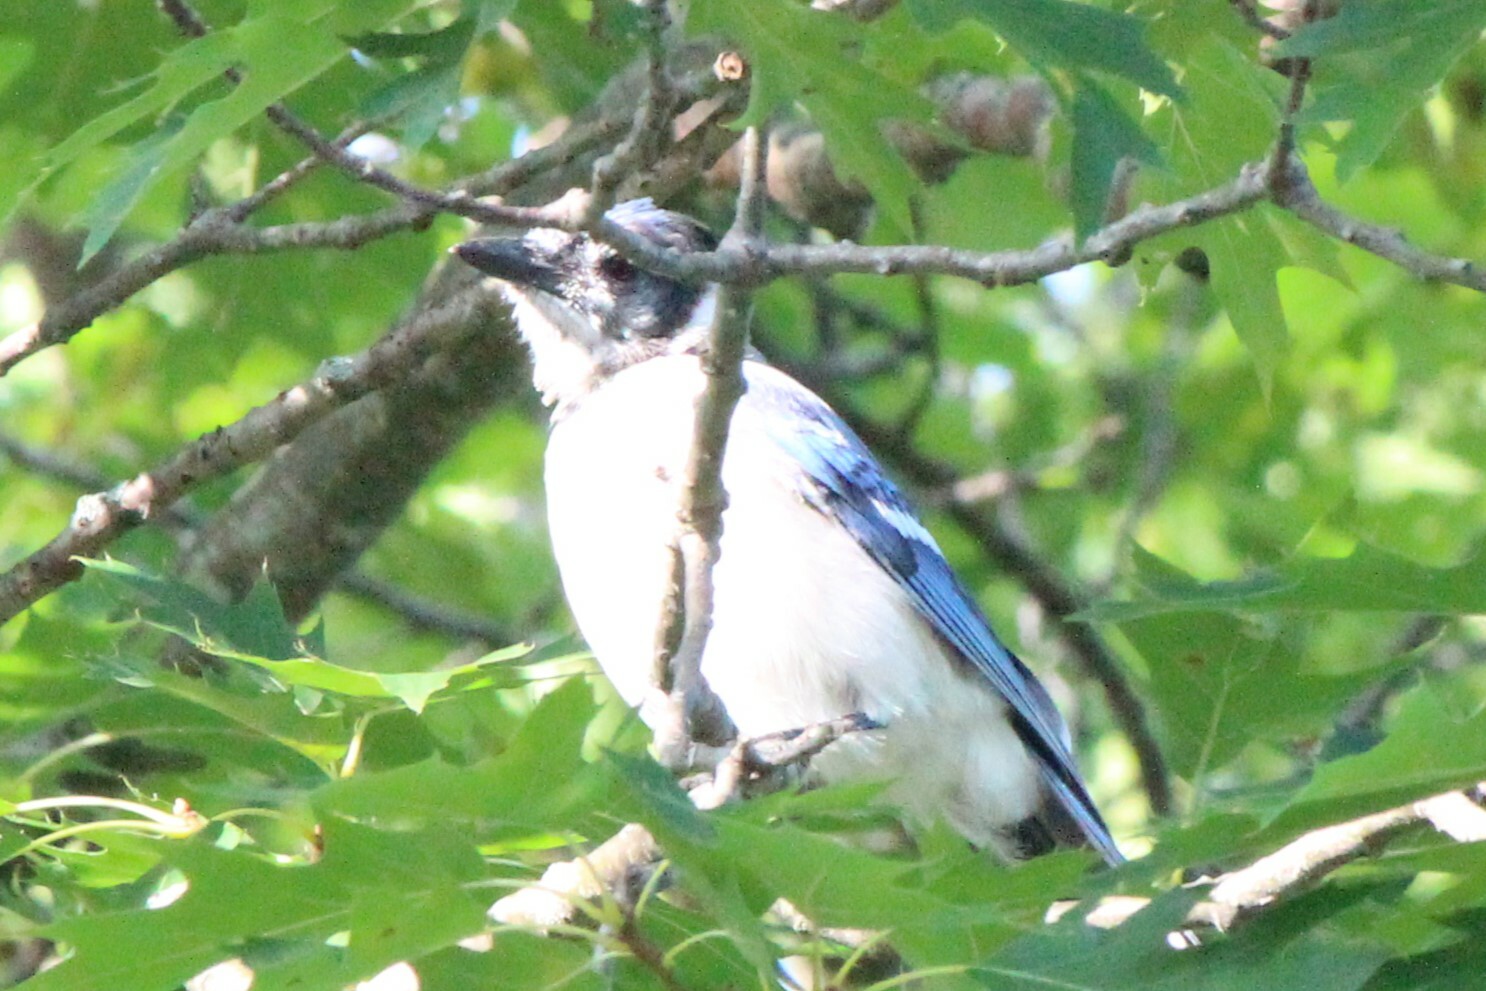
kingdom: Animalia
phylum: Chordata
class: Aves
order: Passeriformes
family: Corvidae
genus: Cyanocitta
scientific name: Cyanocitta cristata
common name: Blue jay
